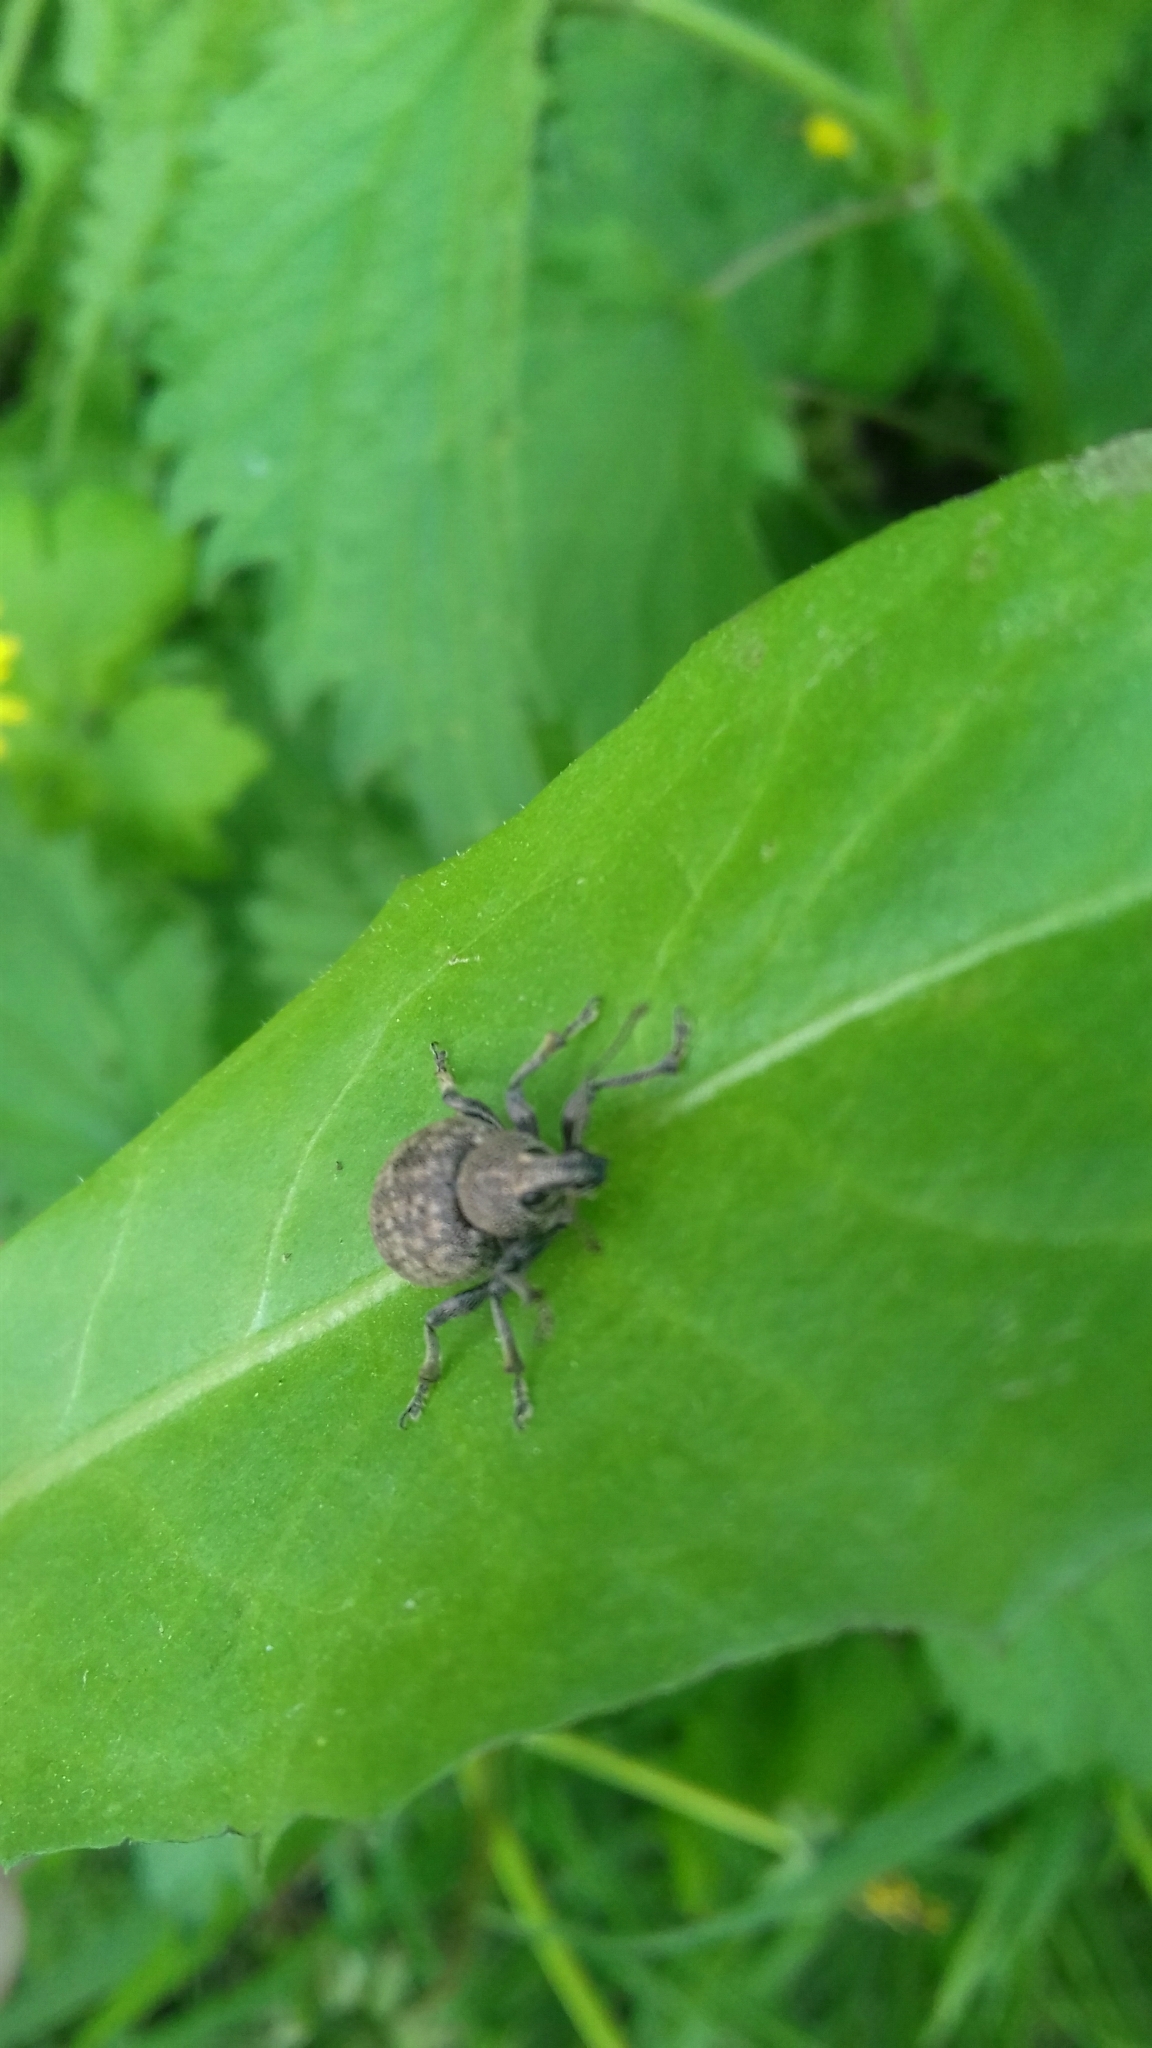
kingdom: Animalia
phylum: Arthropoda
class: Insecta
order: Coleoptera
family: Curculionidae
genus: Otiorhynchus
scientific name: Otiorhynchus ligustici
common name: Weevil
